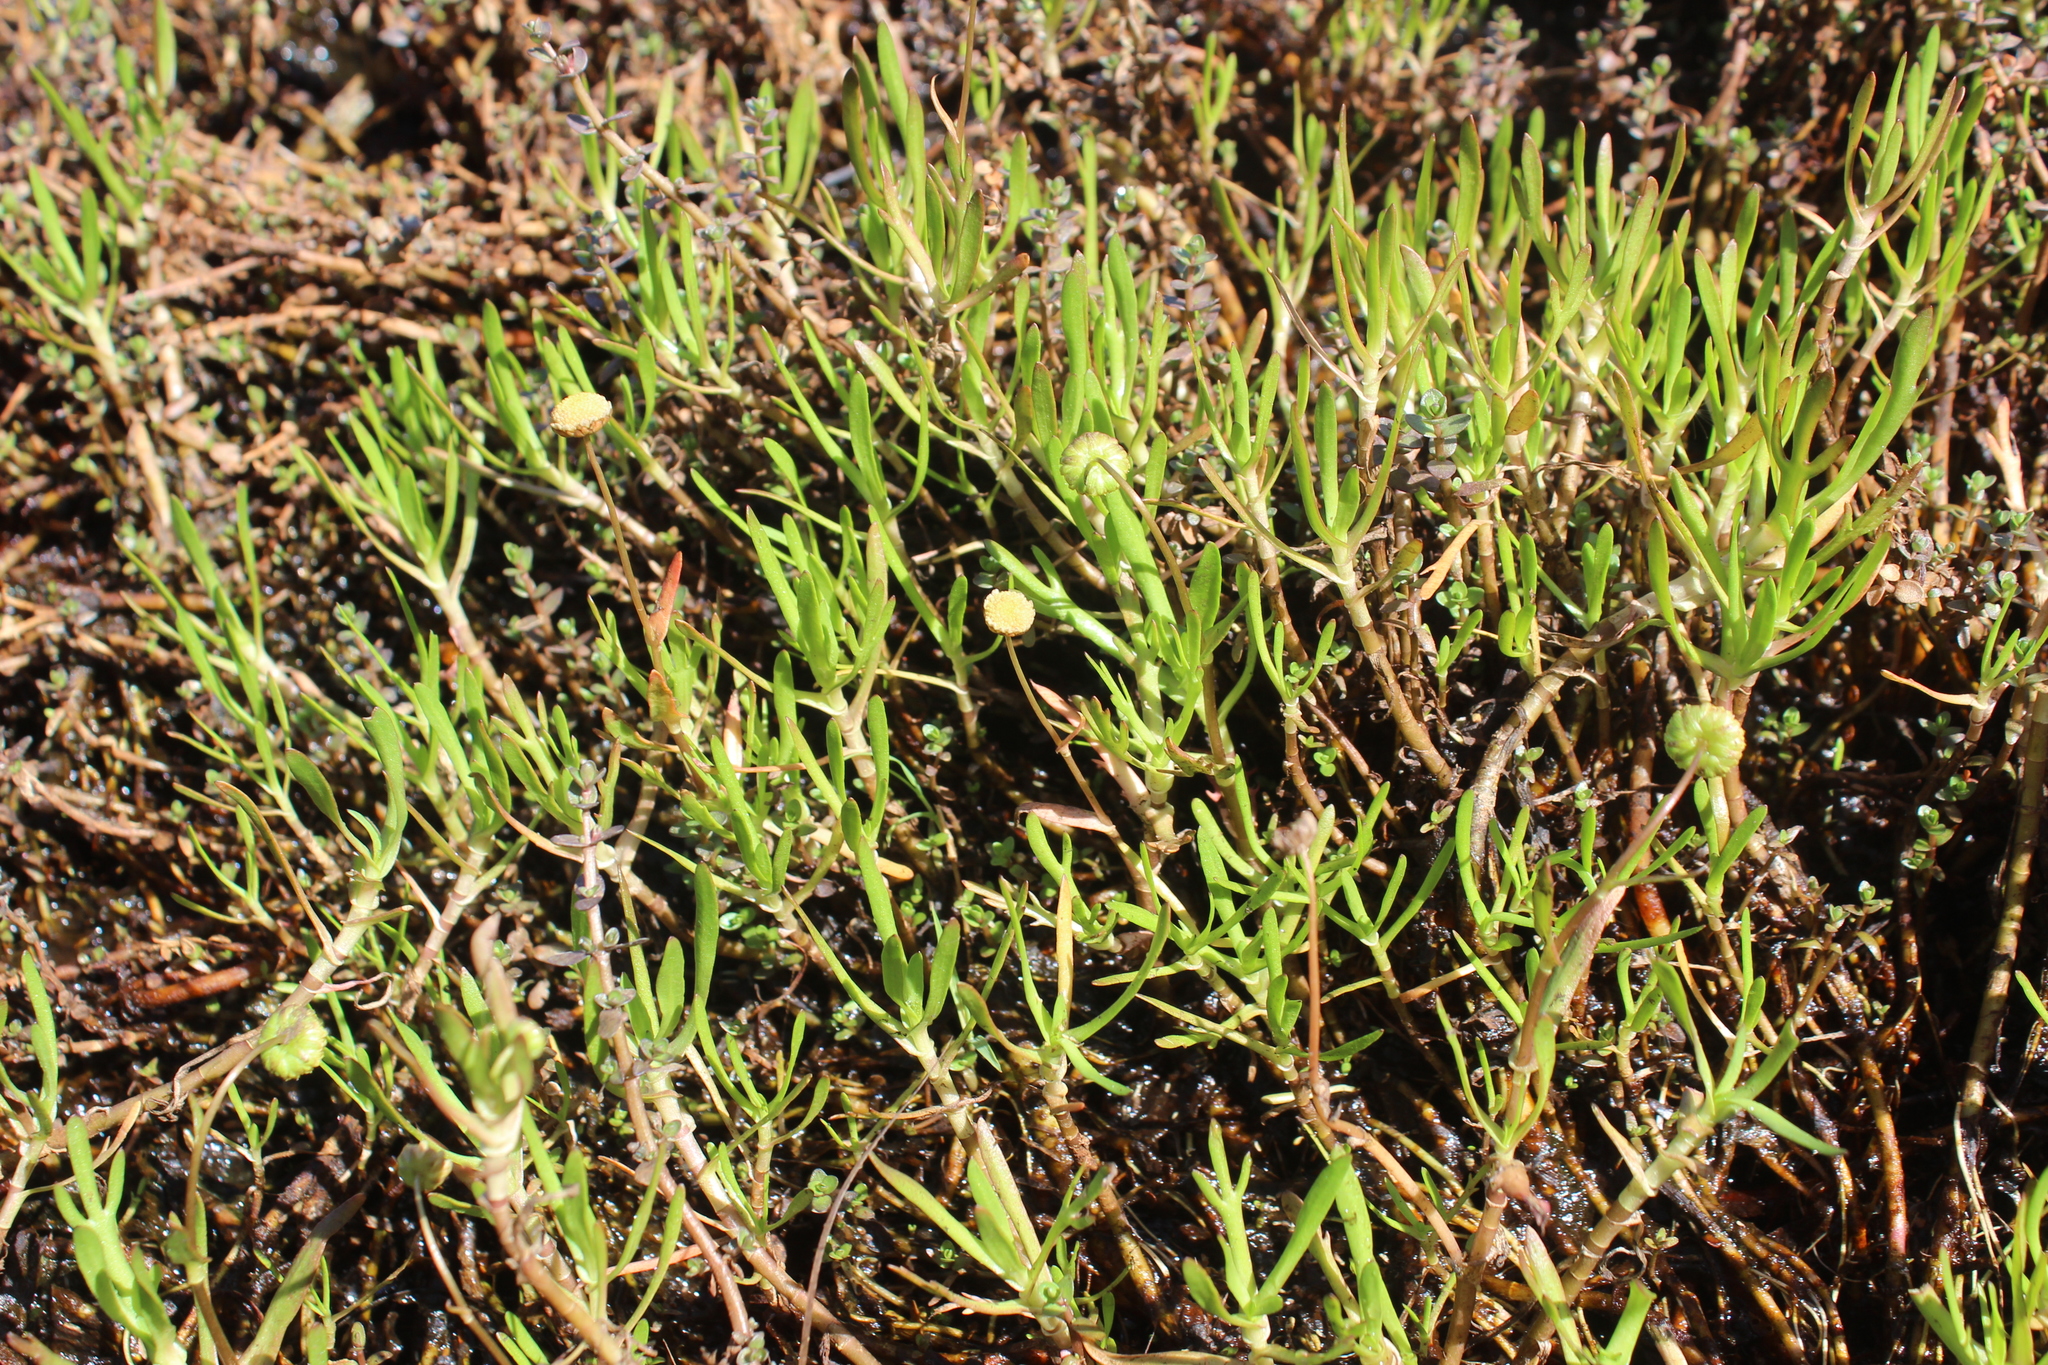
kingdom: Plantae
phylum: Tracheophyta
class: Magnoliopsida
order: Asterales
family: Asteraceae
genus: Cotula
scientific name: Cotula coronopifolia
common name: Buttonweed
